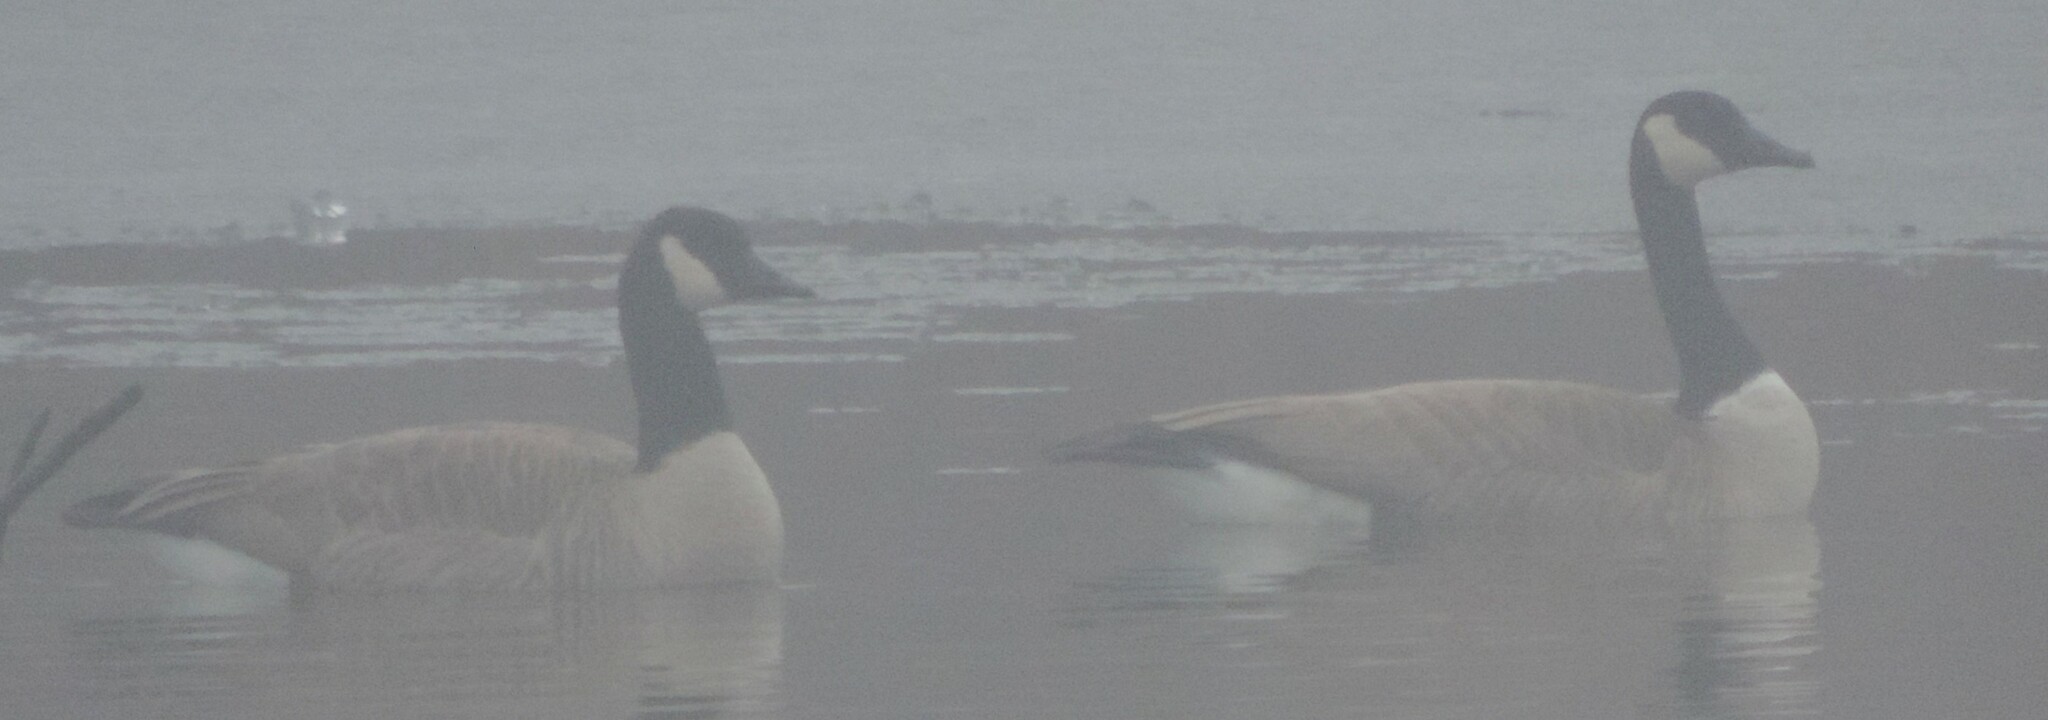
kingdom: Animalia
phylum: Chordata
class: Aves
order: Anseriformes
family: Anatidae
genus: Branta
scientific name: Branta canadensis
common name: Canada goose
